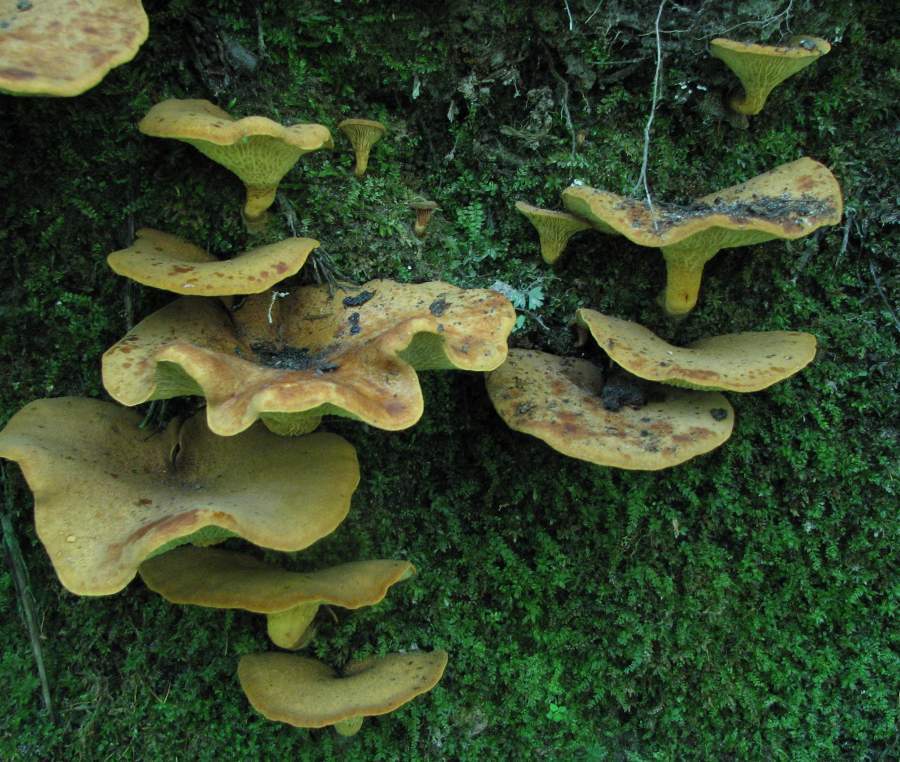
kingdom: Fungi
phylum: Basidiomycota
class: Agaricomycetes
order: Boletales
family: Boletinellaceae
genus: Boletinellus
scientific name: Boletinellus merulioides
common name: Ash tree bolete
